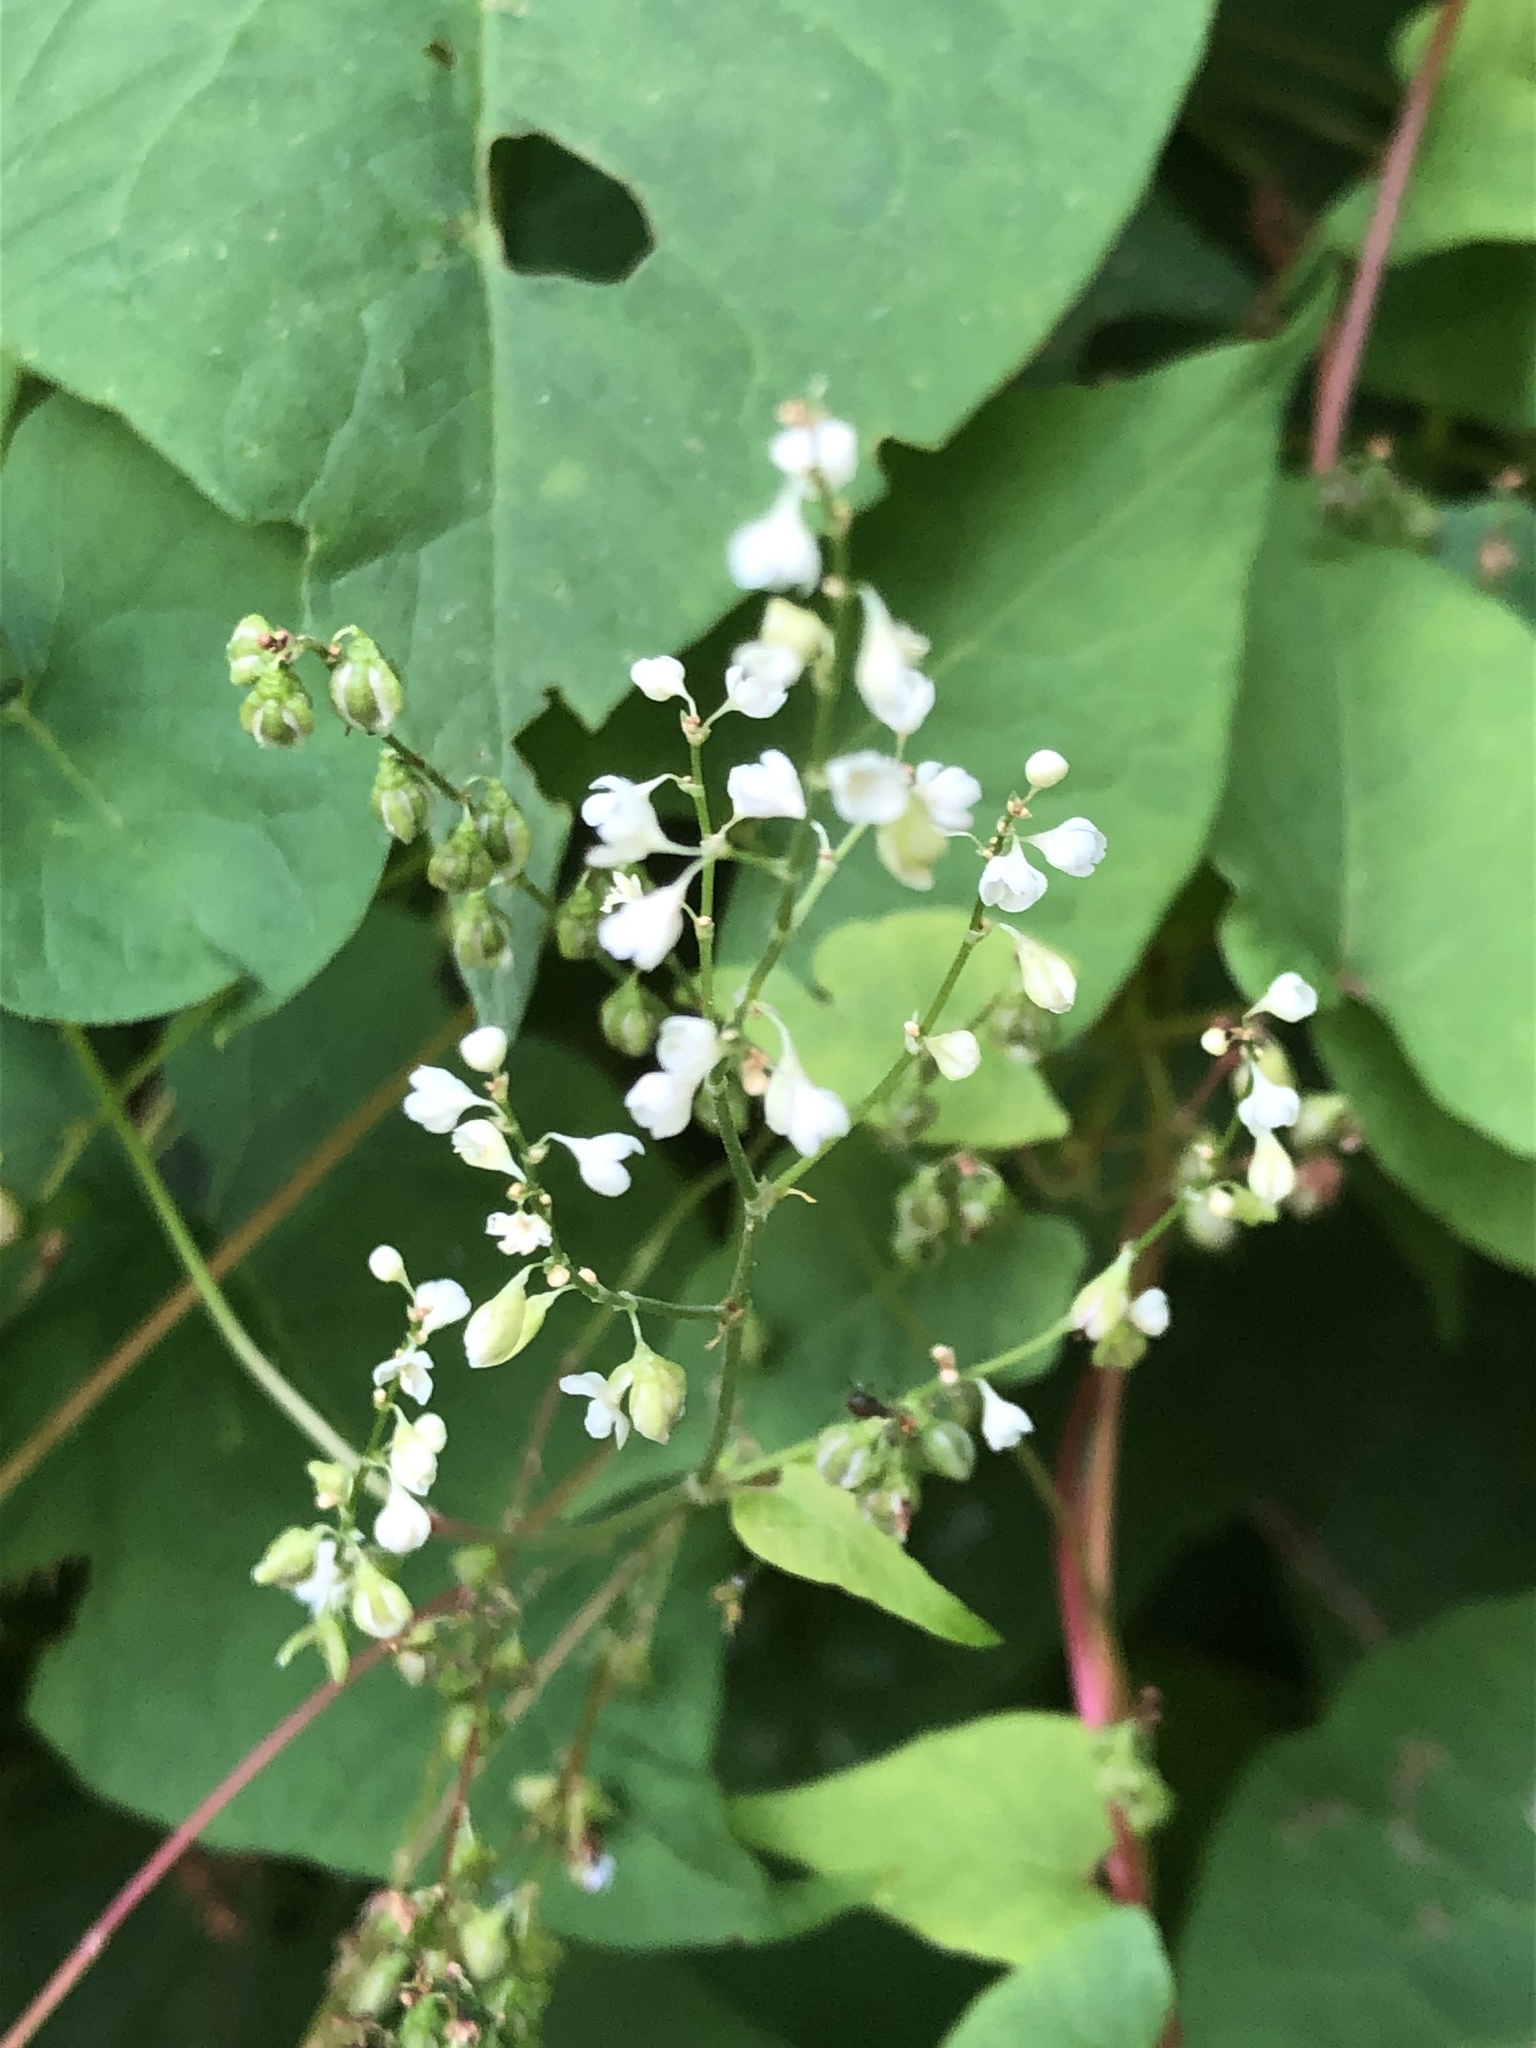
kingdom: Plantae
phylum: Tracheophyta
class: Magnoliopsida
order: Caryophyllales
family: Polygonaceae
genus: Parogonum
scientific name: Parogonum ciliinode
